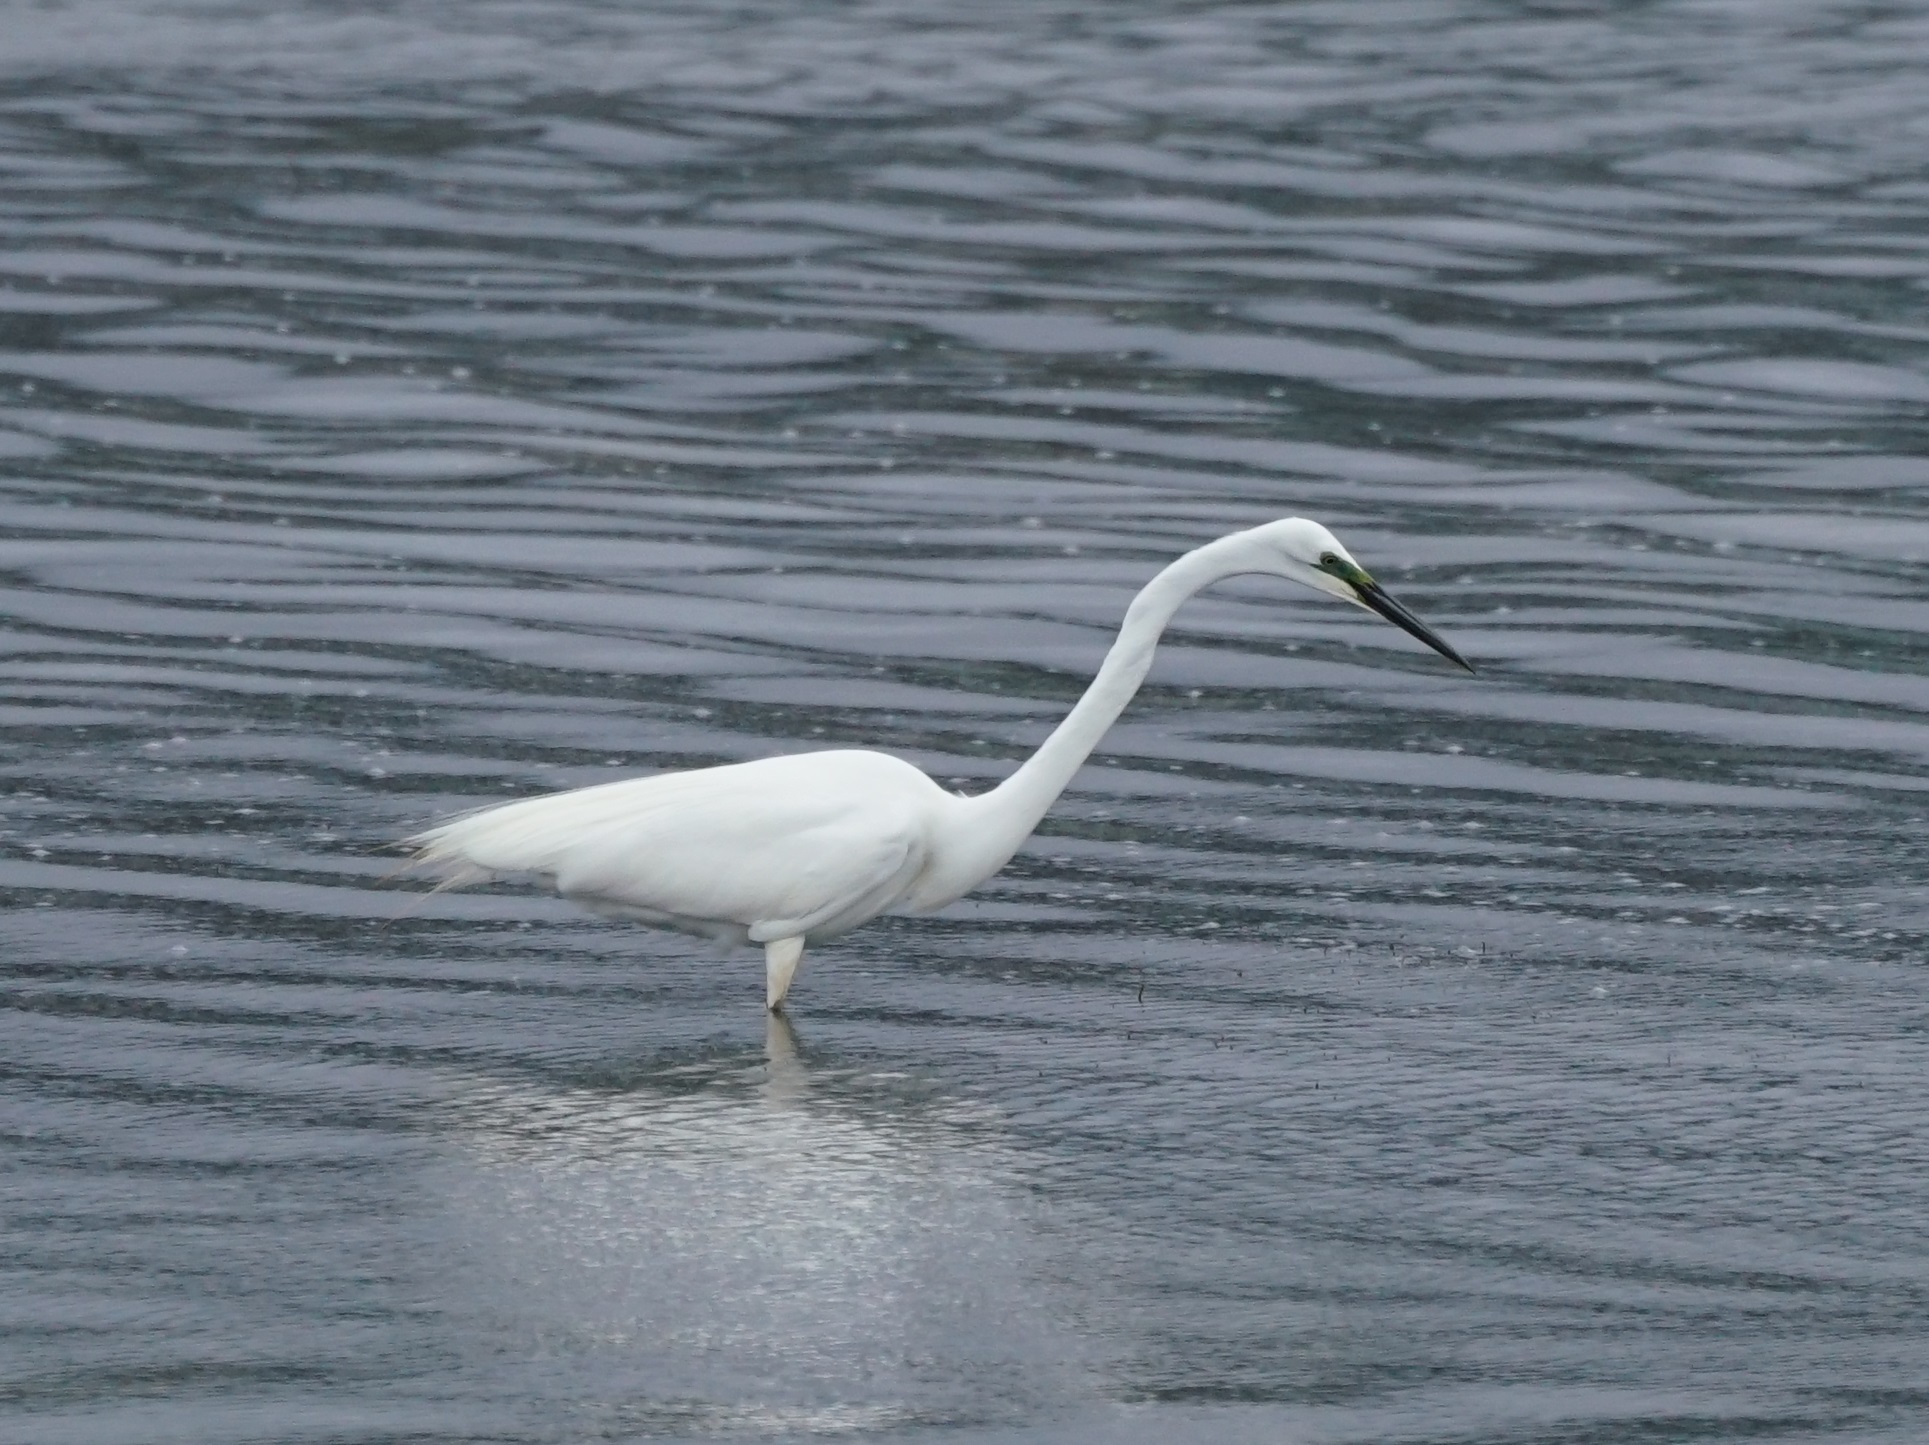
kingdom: Animalia
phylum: Chordata
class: Aves
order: Pelecaniformes
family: Ardeidae
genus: Egretta
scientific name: Egretta garzetta
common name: Little egret
